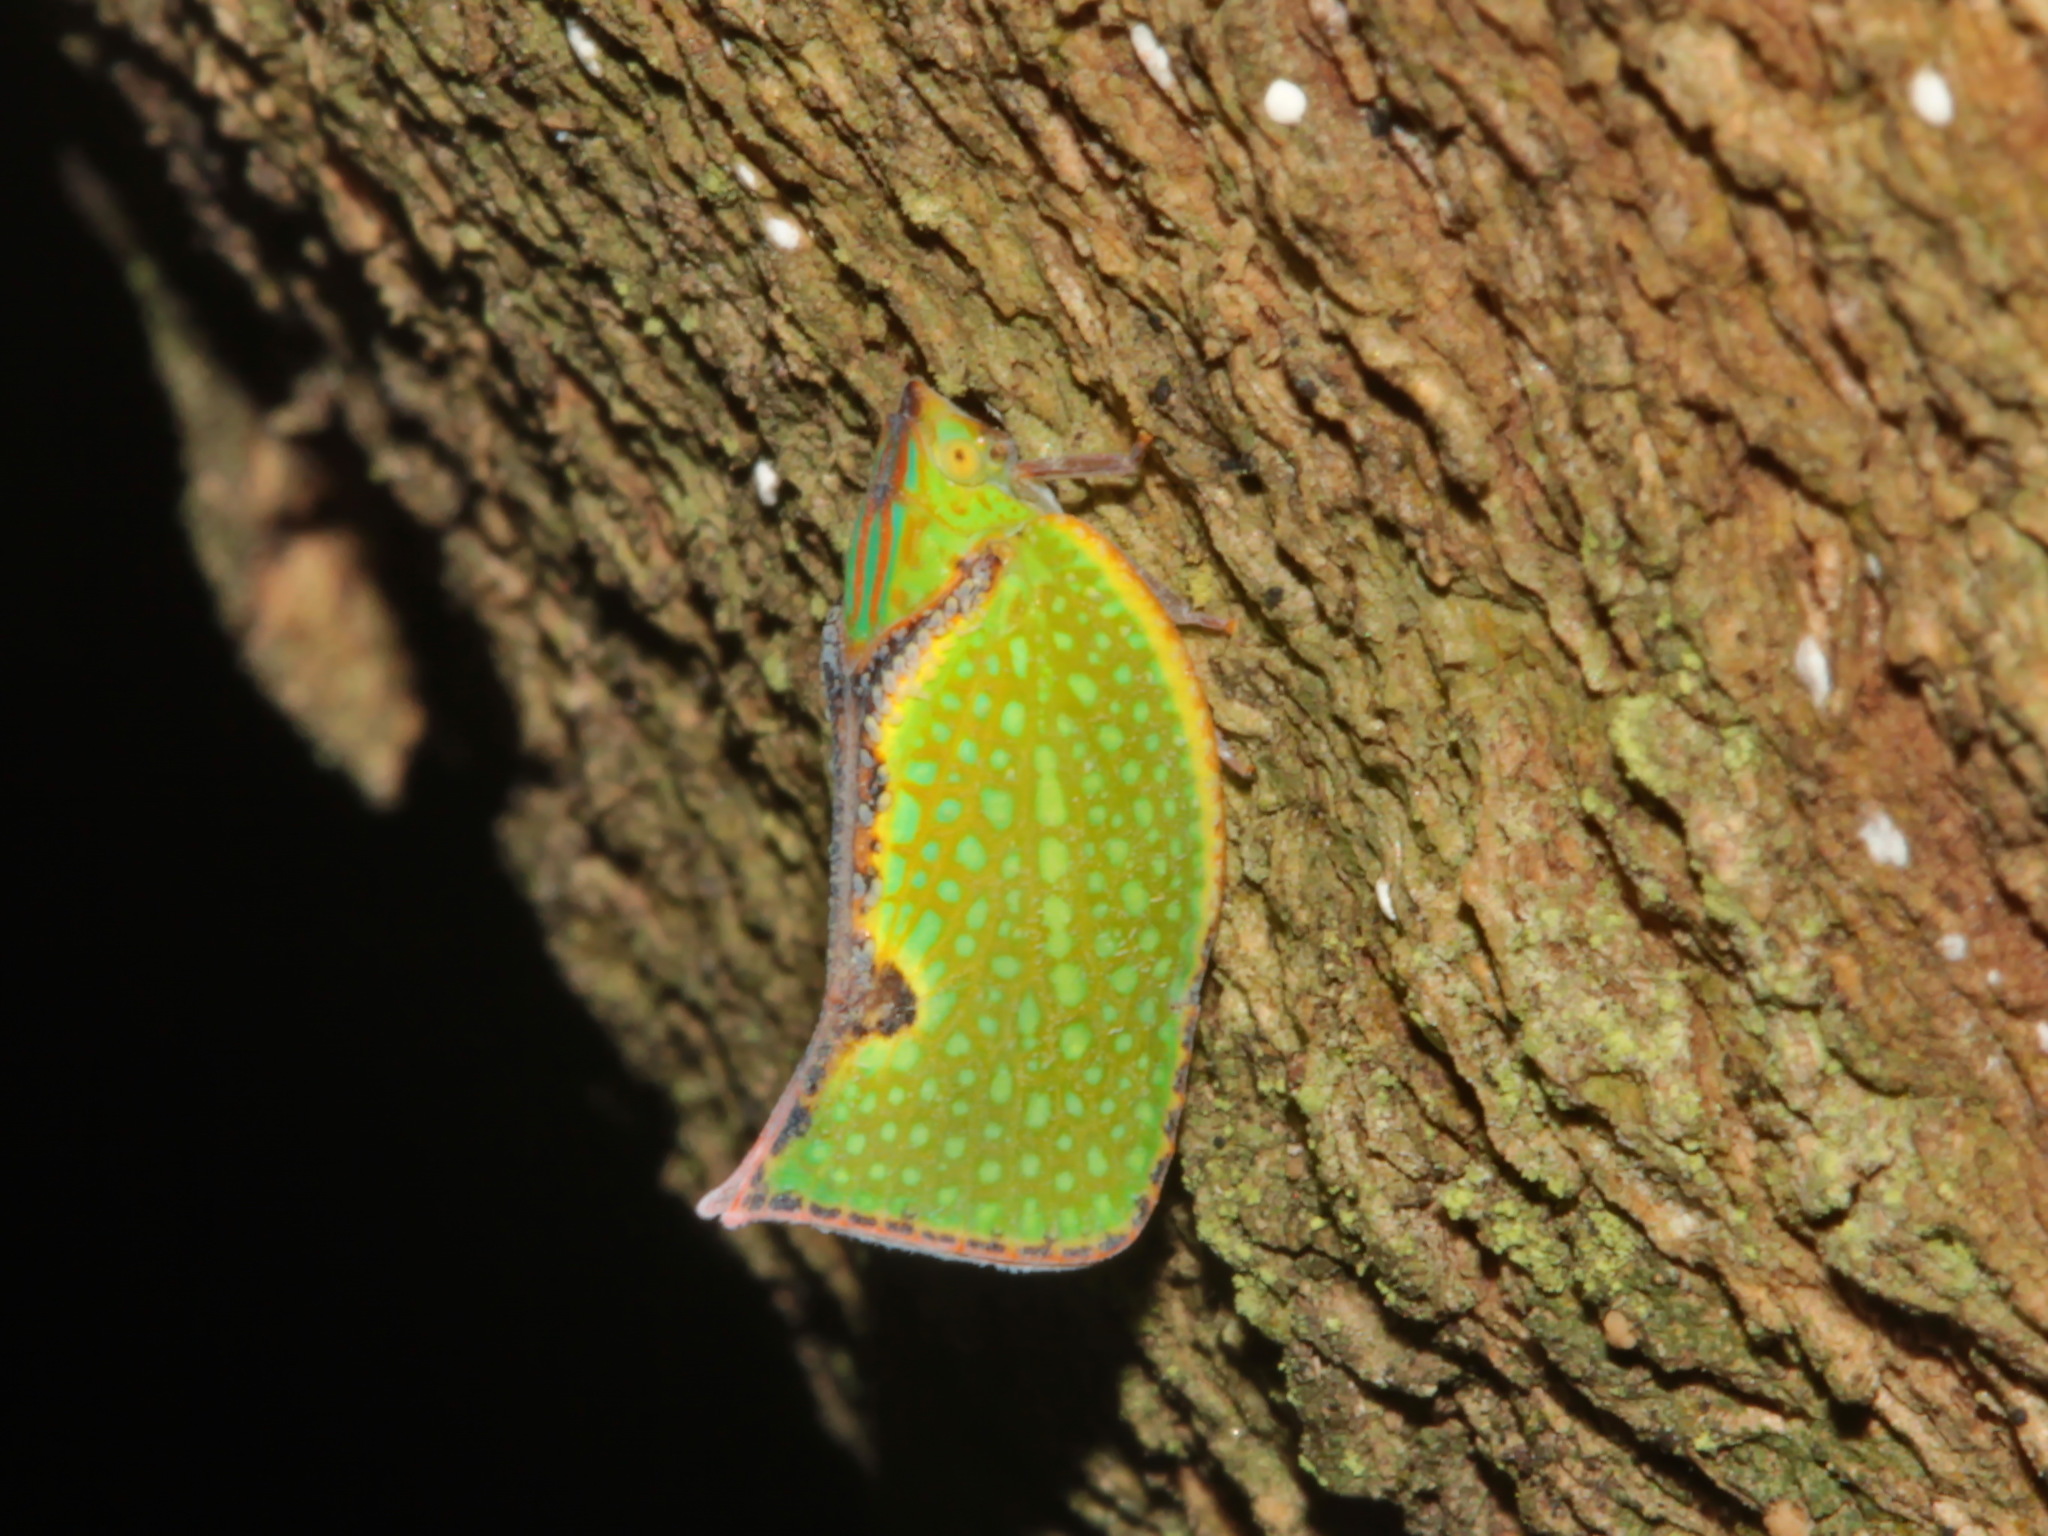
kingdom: Animalia
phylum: Arthropoda
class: Insecta
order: Hemiptera
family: Flatidae
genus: Salurnis
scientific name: Salurnis marginella
